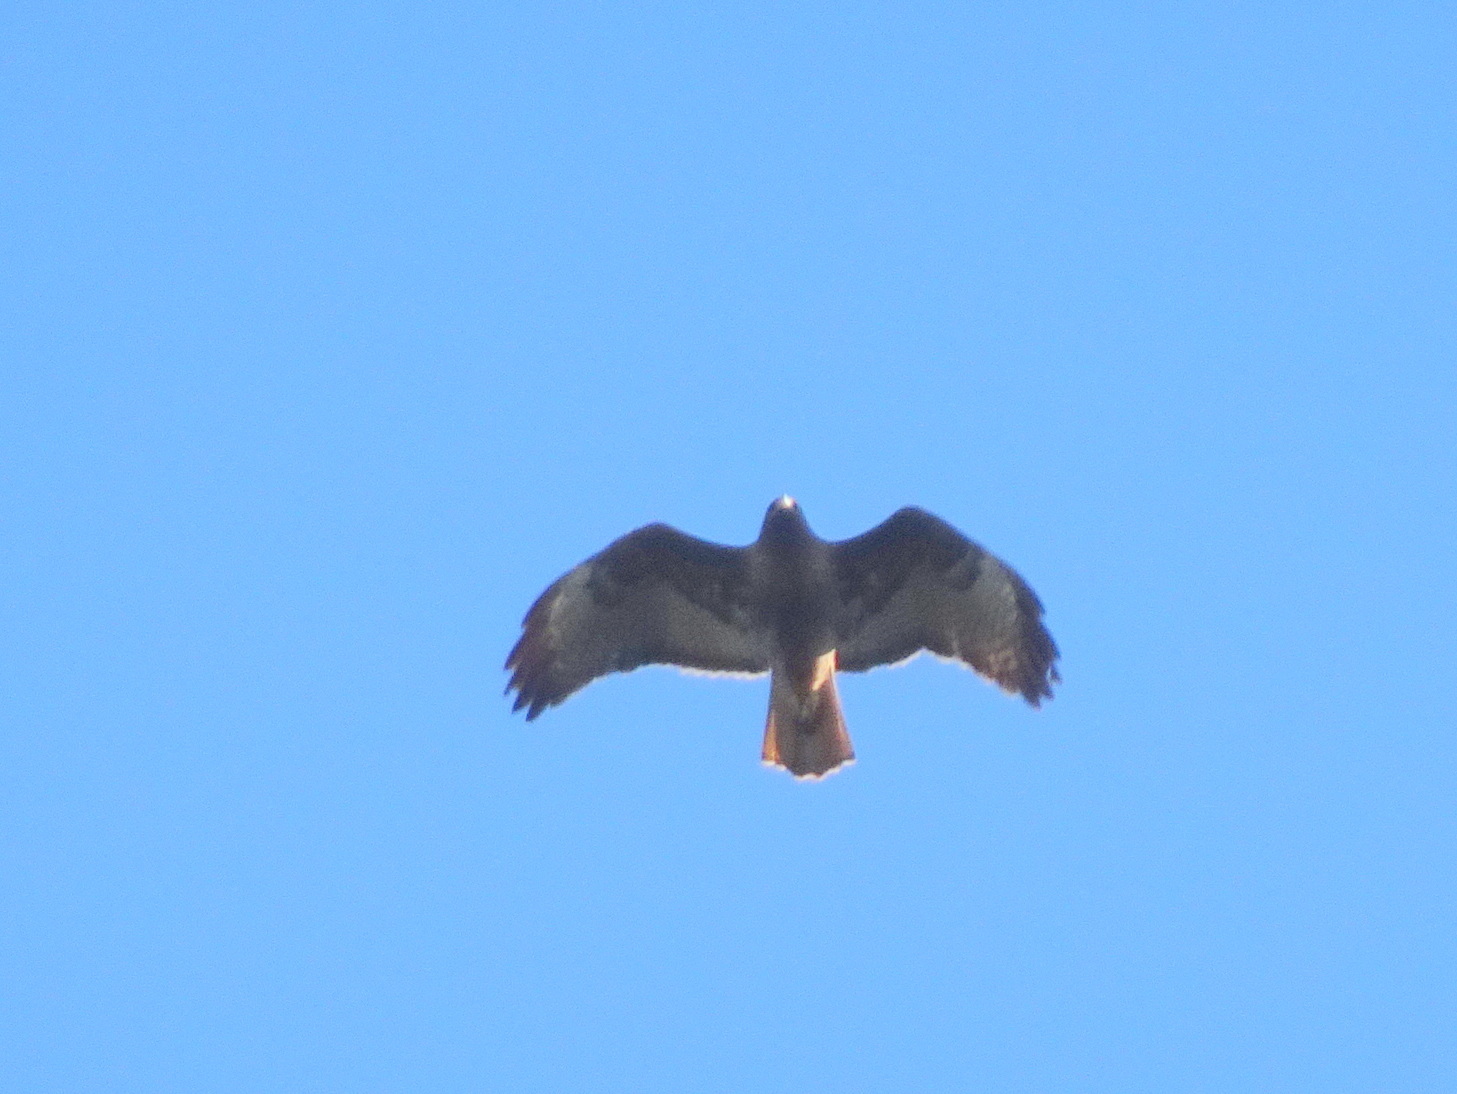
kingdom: Animalia
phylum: Chordata
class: Aves
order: Accipitriformes
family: Accipitridae
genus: Buteo
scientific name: Buteo jamaicensis
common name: Red-tailed hawk
